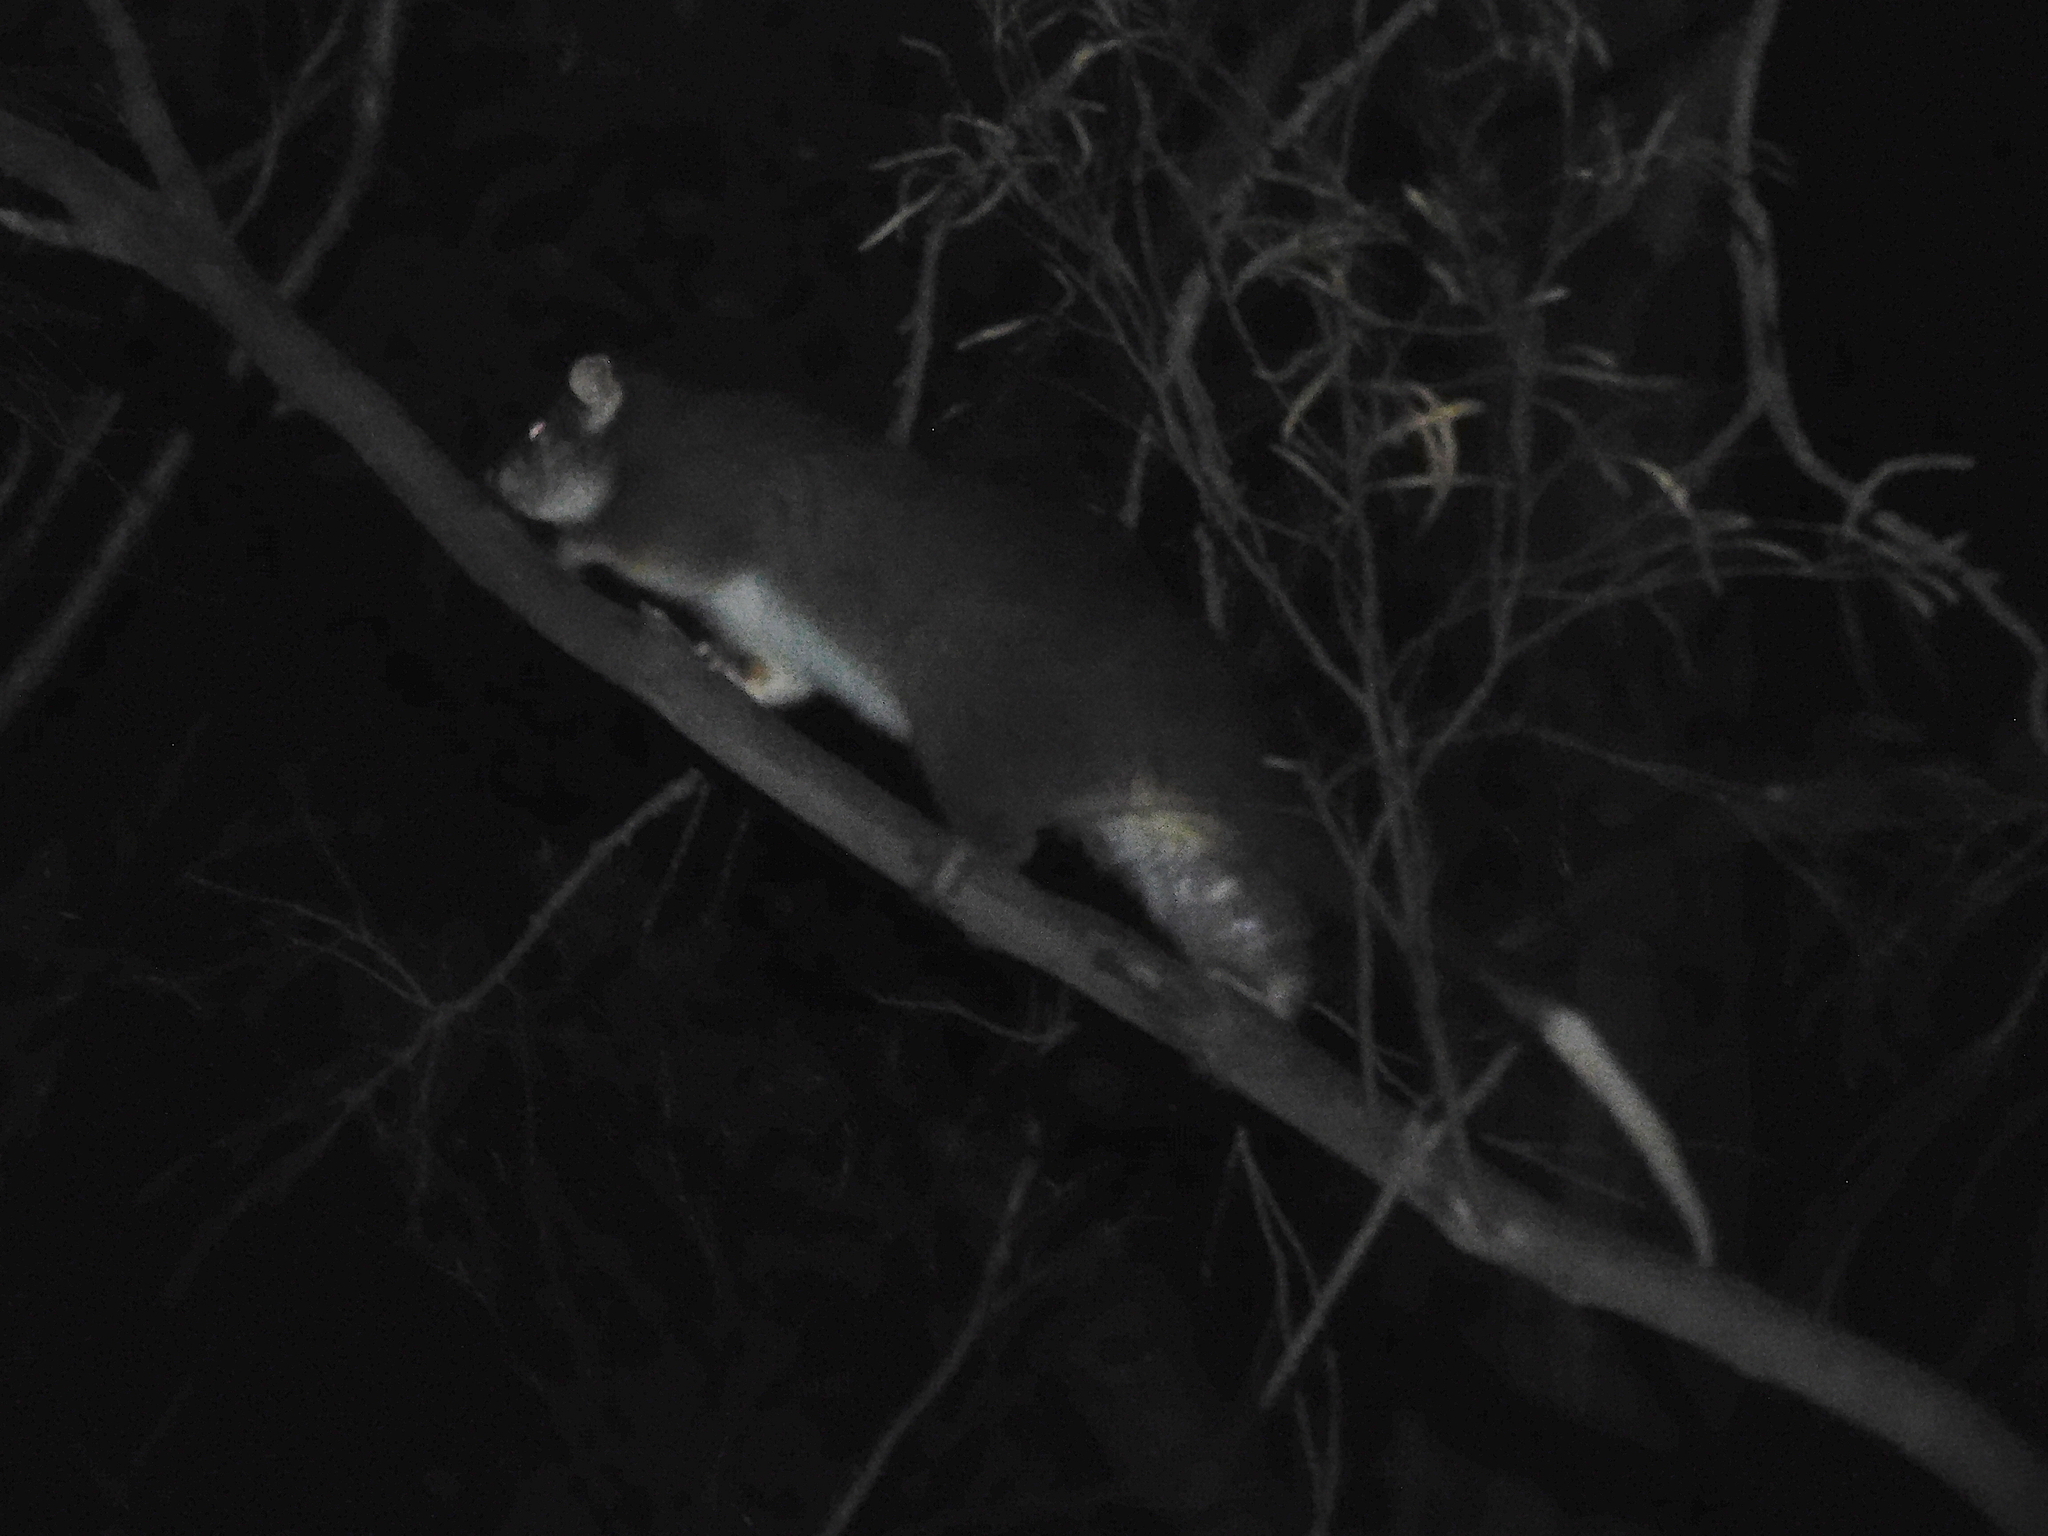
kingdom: Animalia
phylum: Chordata
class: Mammalia
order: Diprotodontia
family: Pseudocheiridae
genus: Pseudocheirus
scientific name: Pseudocheirus peregrinus
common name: Common ringtail possum
